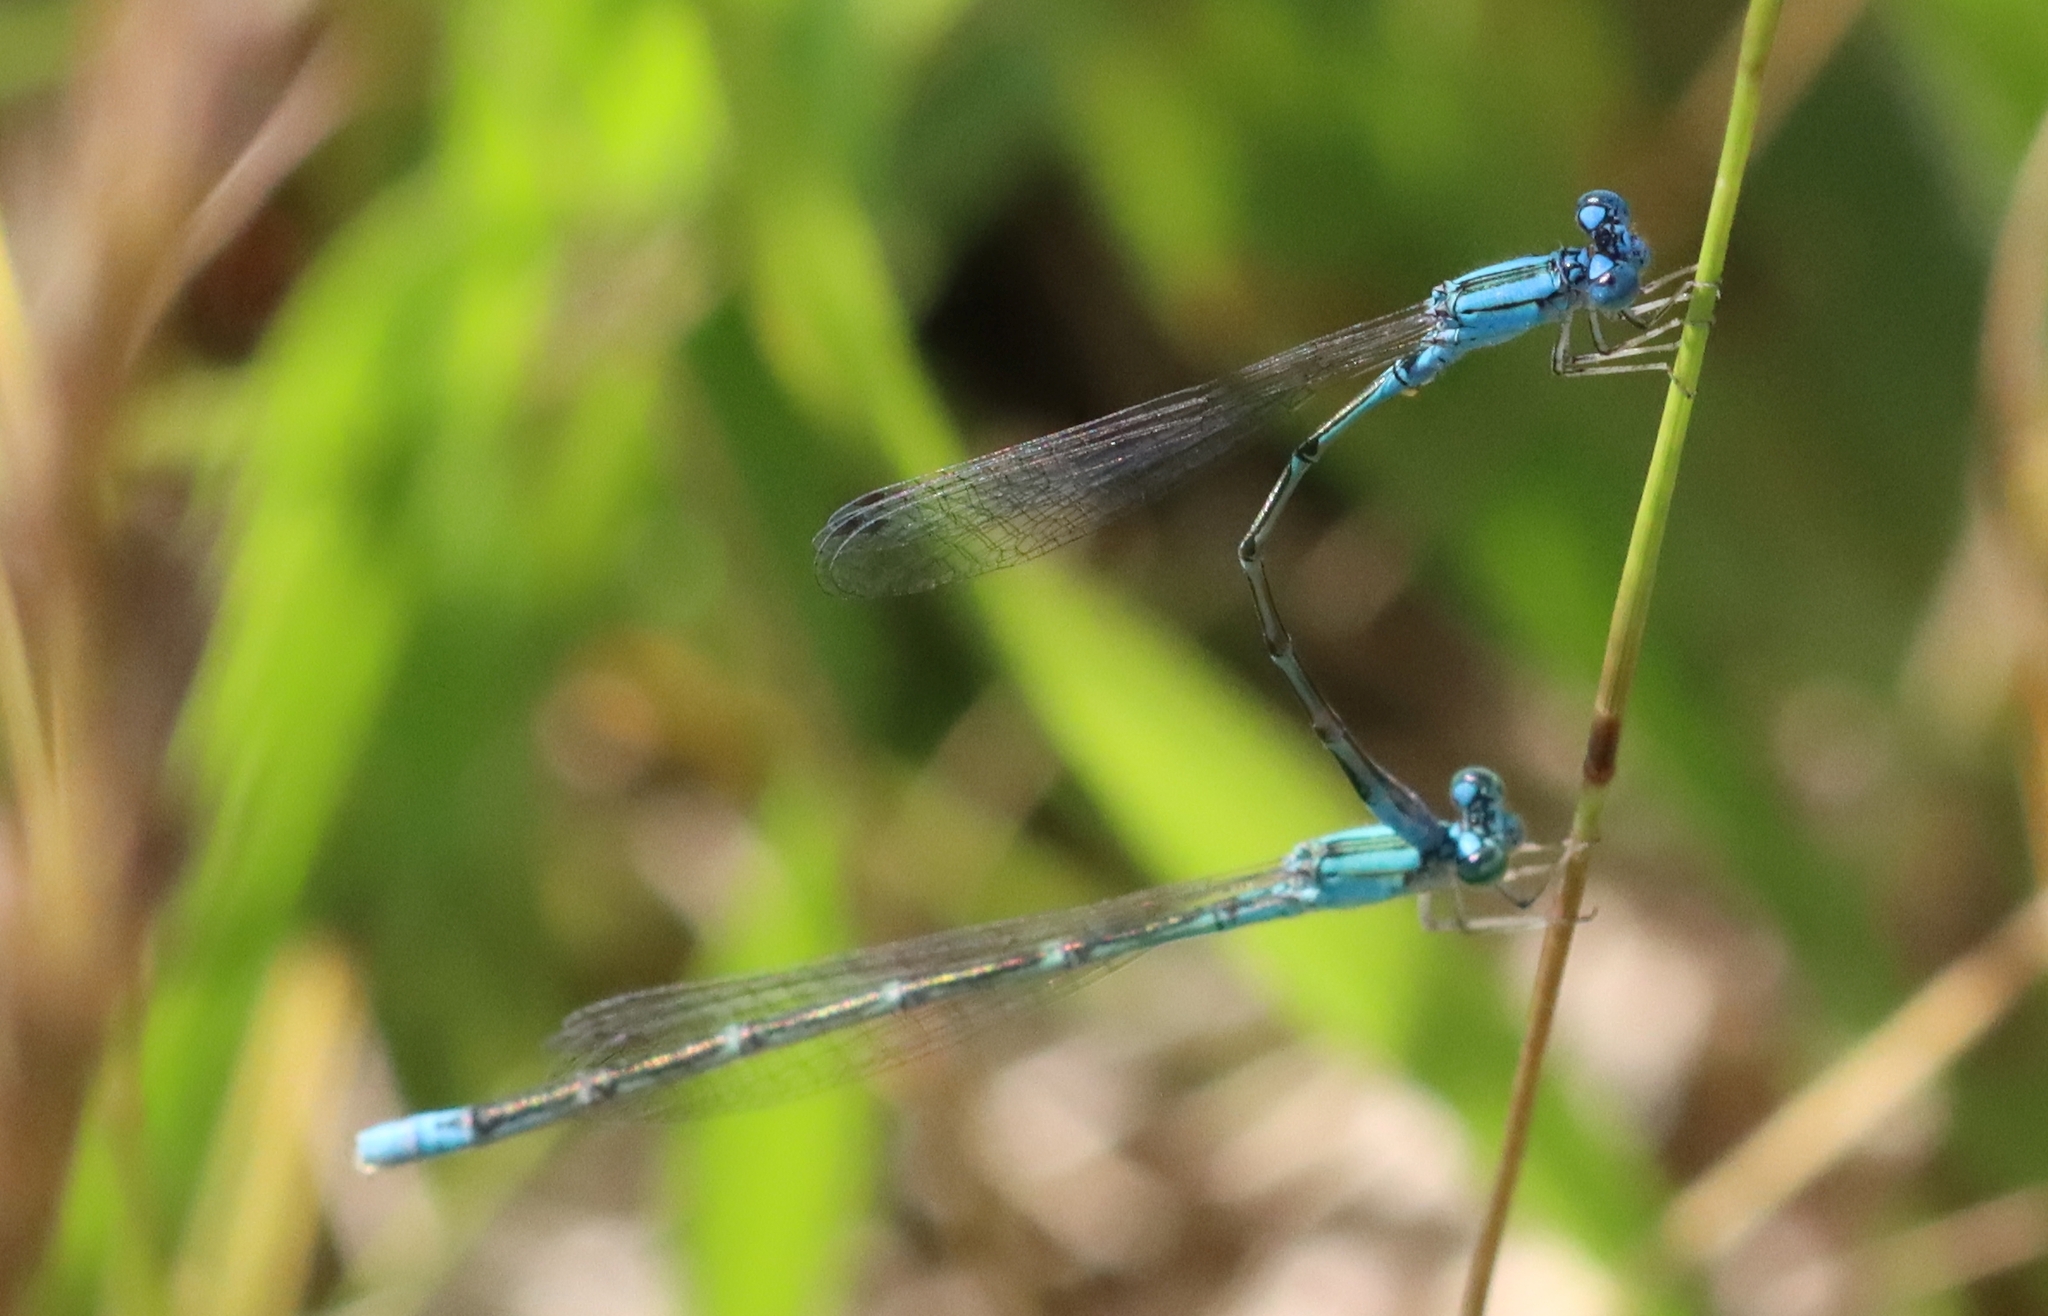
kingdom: Animalia
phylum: Arthropoda
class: Insecta
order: Odonata
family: Coenagrionidae
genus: Enallagma
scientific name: Enallagma traviatum
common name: Slender bluet
